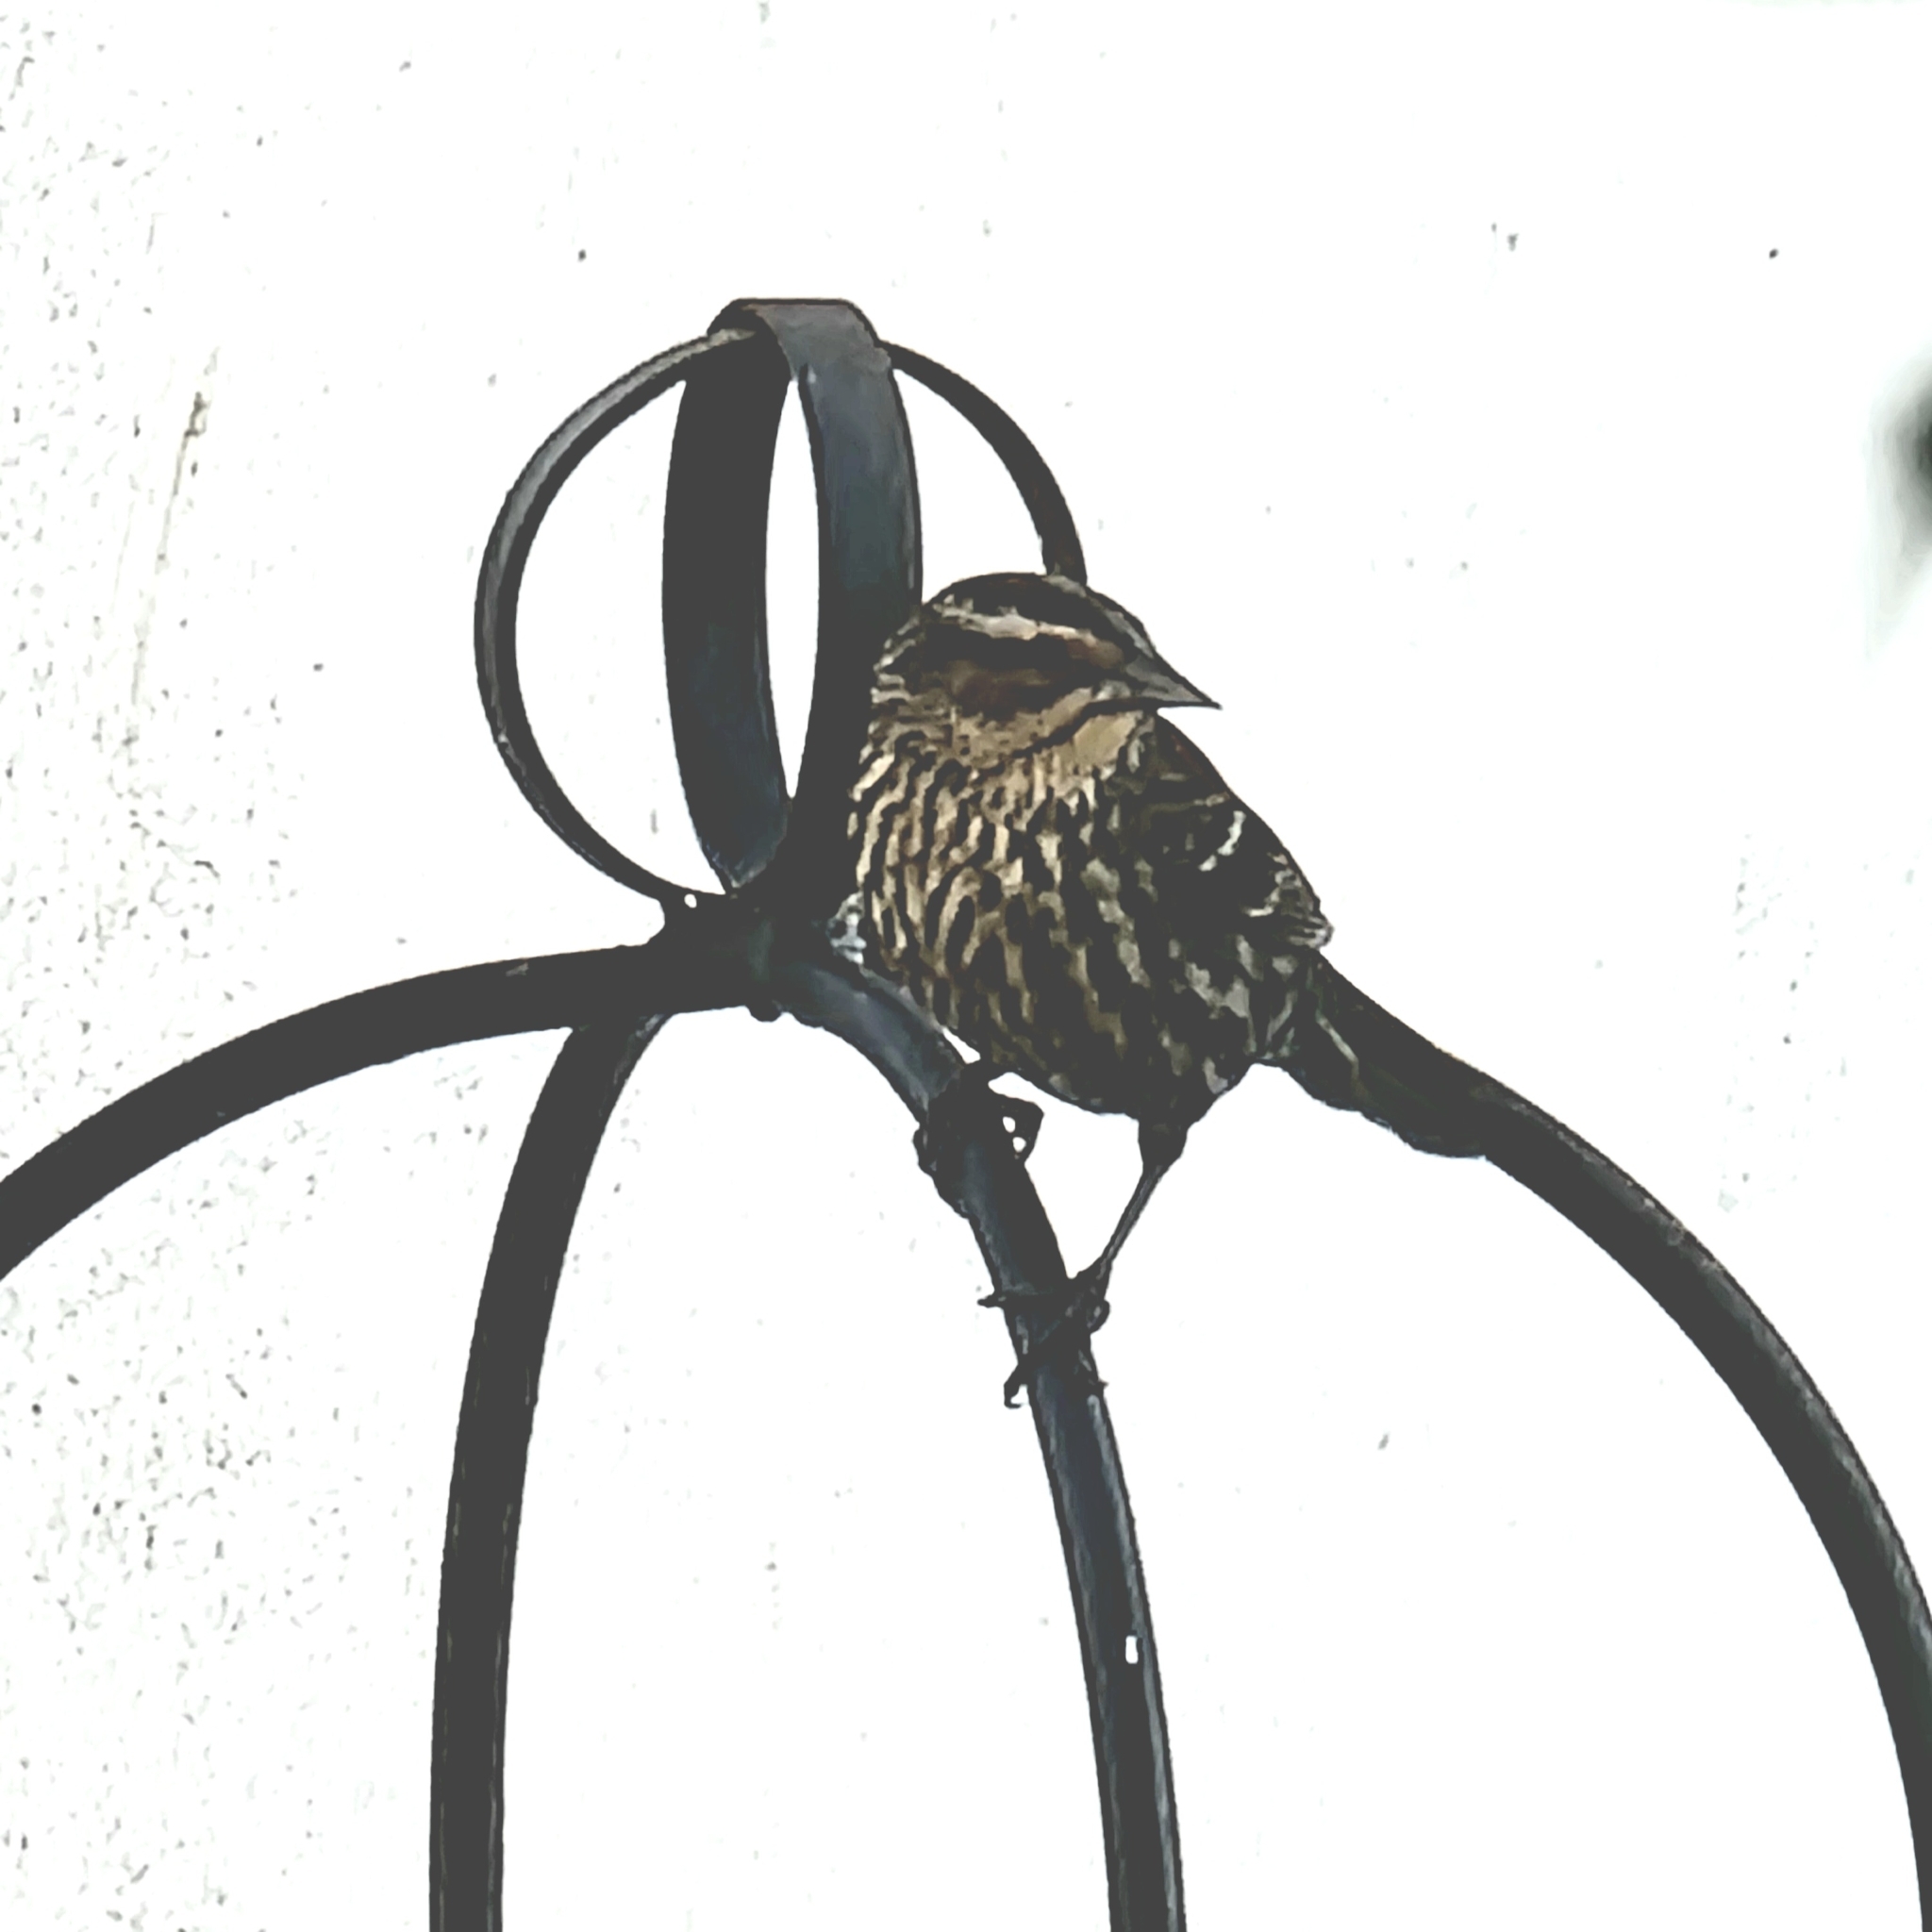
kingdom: Animalia
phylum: Chordata
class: Aves
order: Passeriformes
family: Icteridae
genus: Agelaius
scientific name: Agelaius phoeniceus
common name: Red-winged blackbird
